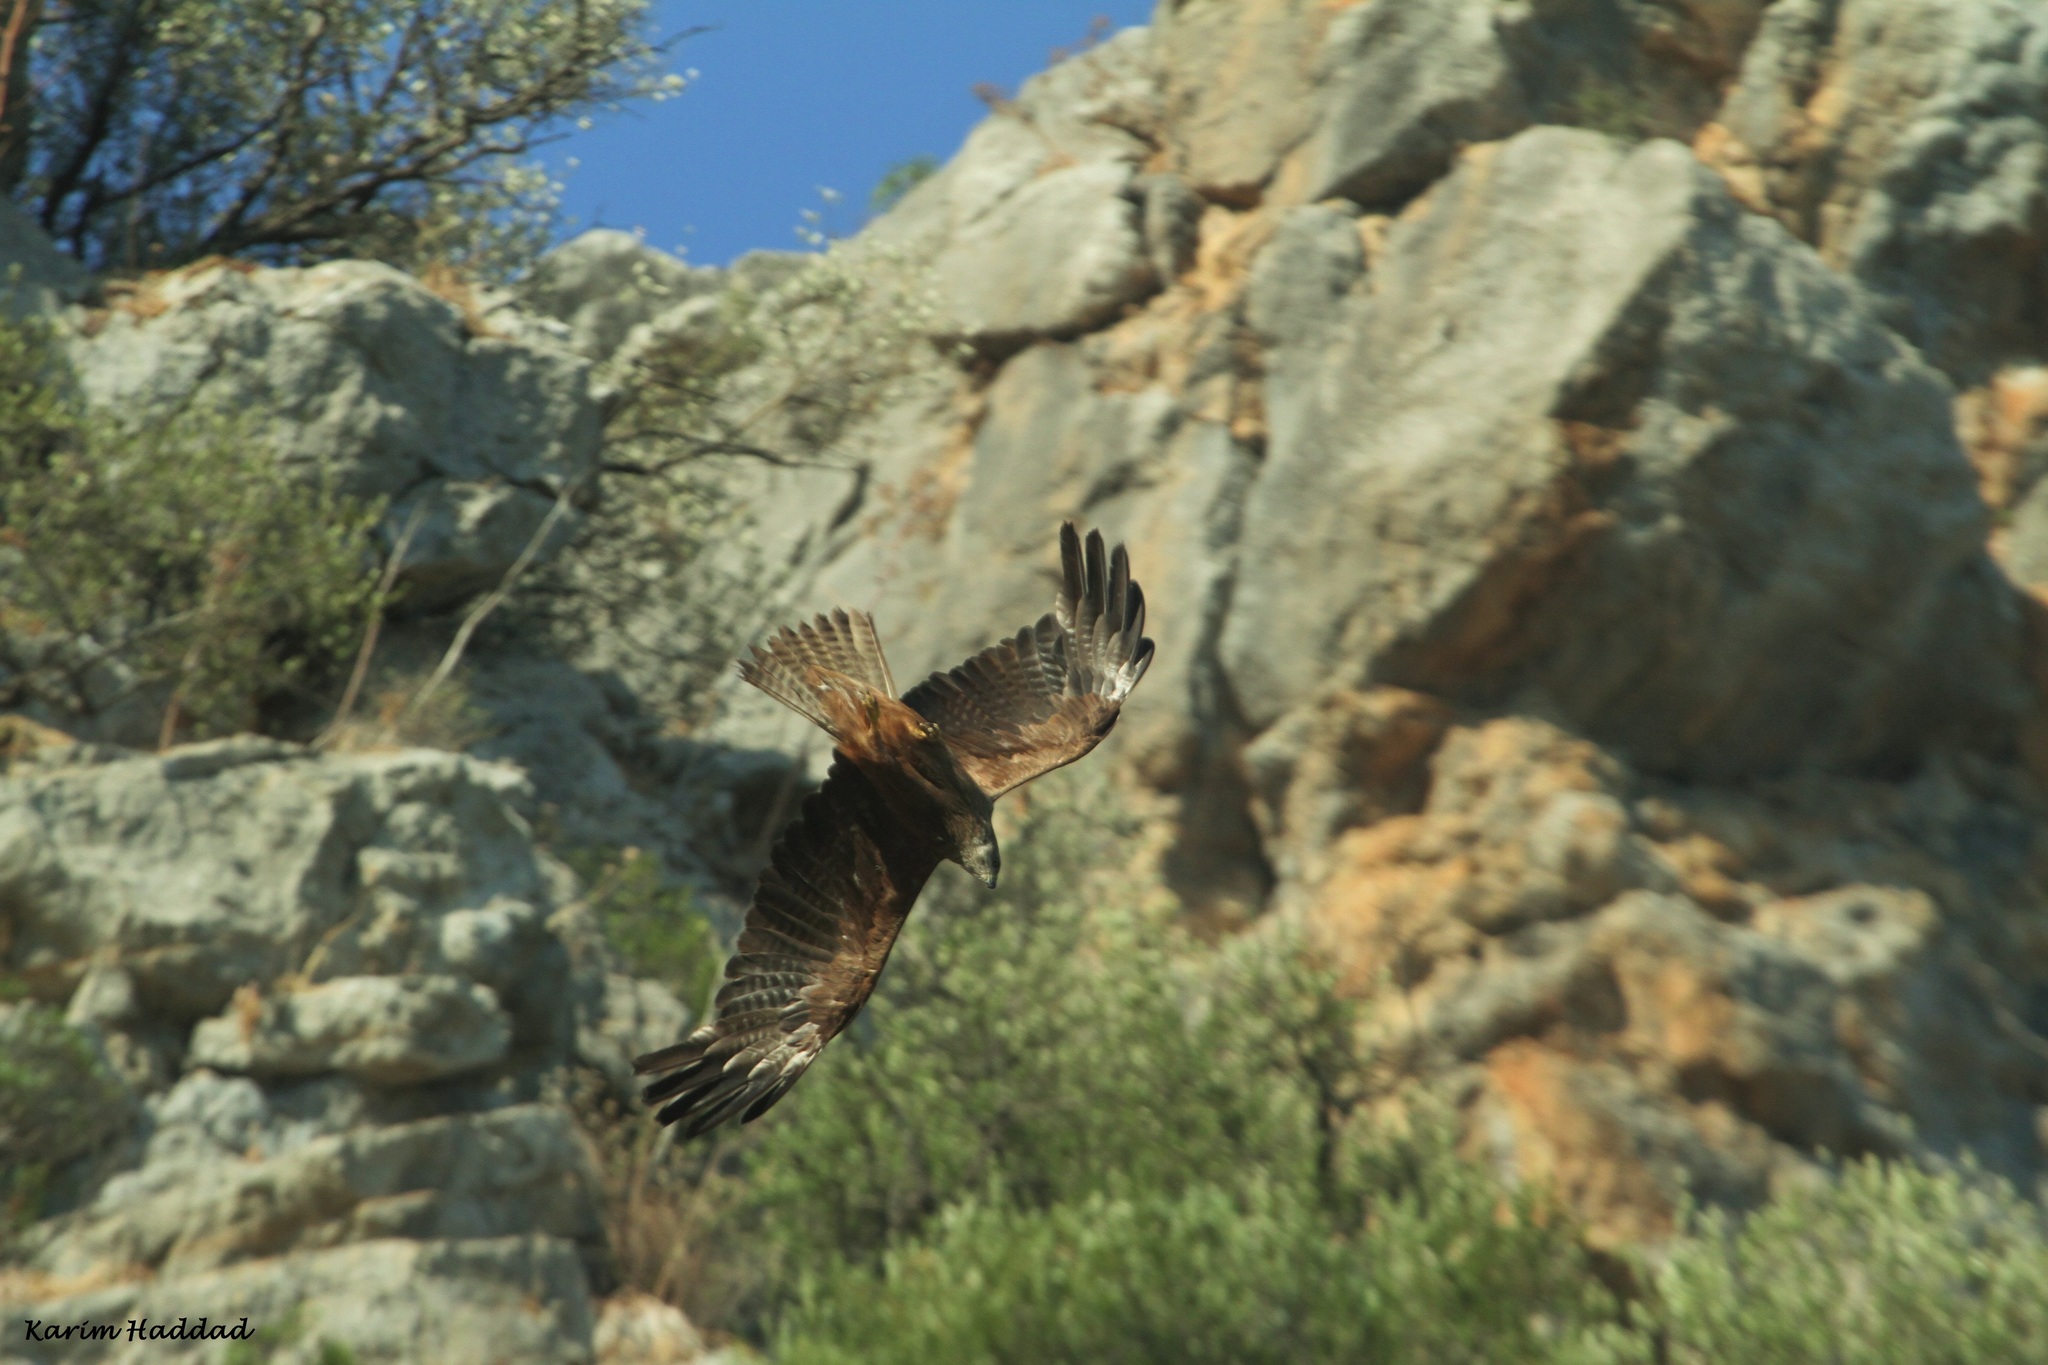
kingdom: Animalia
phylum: Chordata
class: Aves
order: Accipitriformes
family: Accipitridae
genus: Milvus
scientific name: Milvus migrans
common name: Black kite
